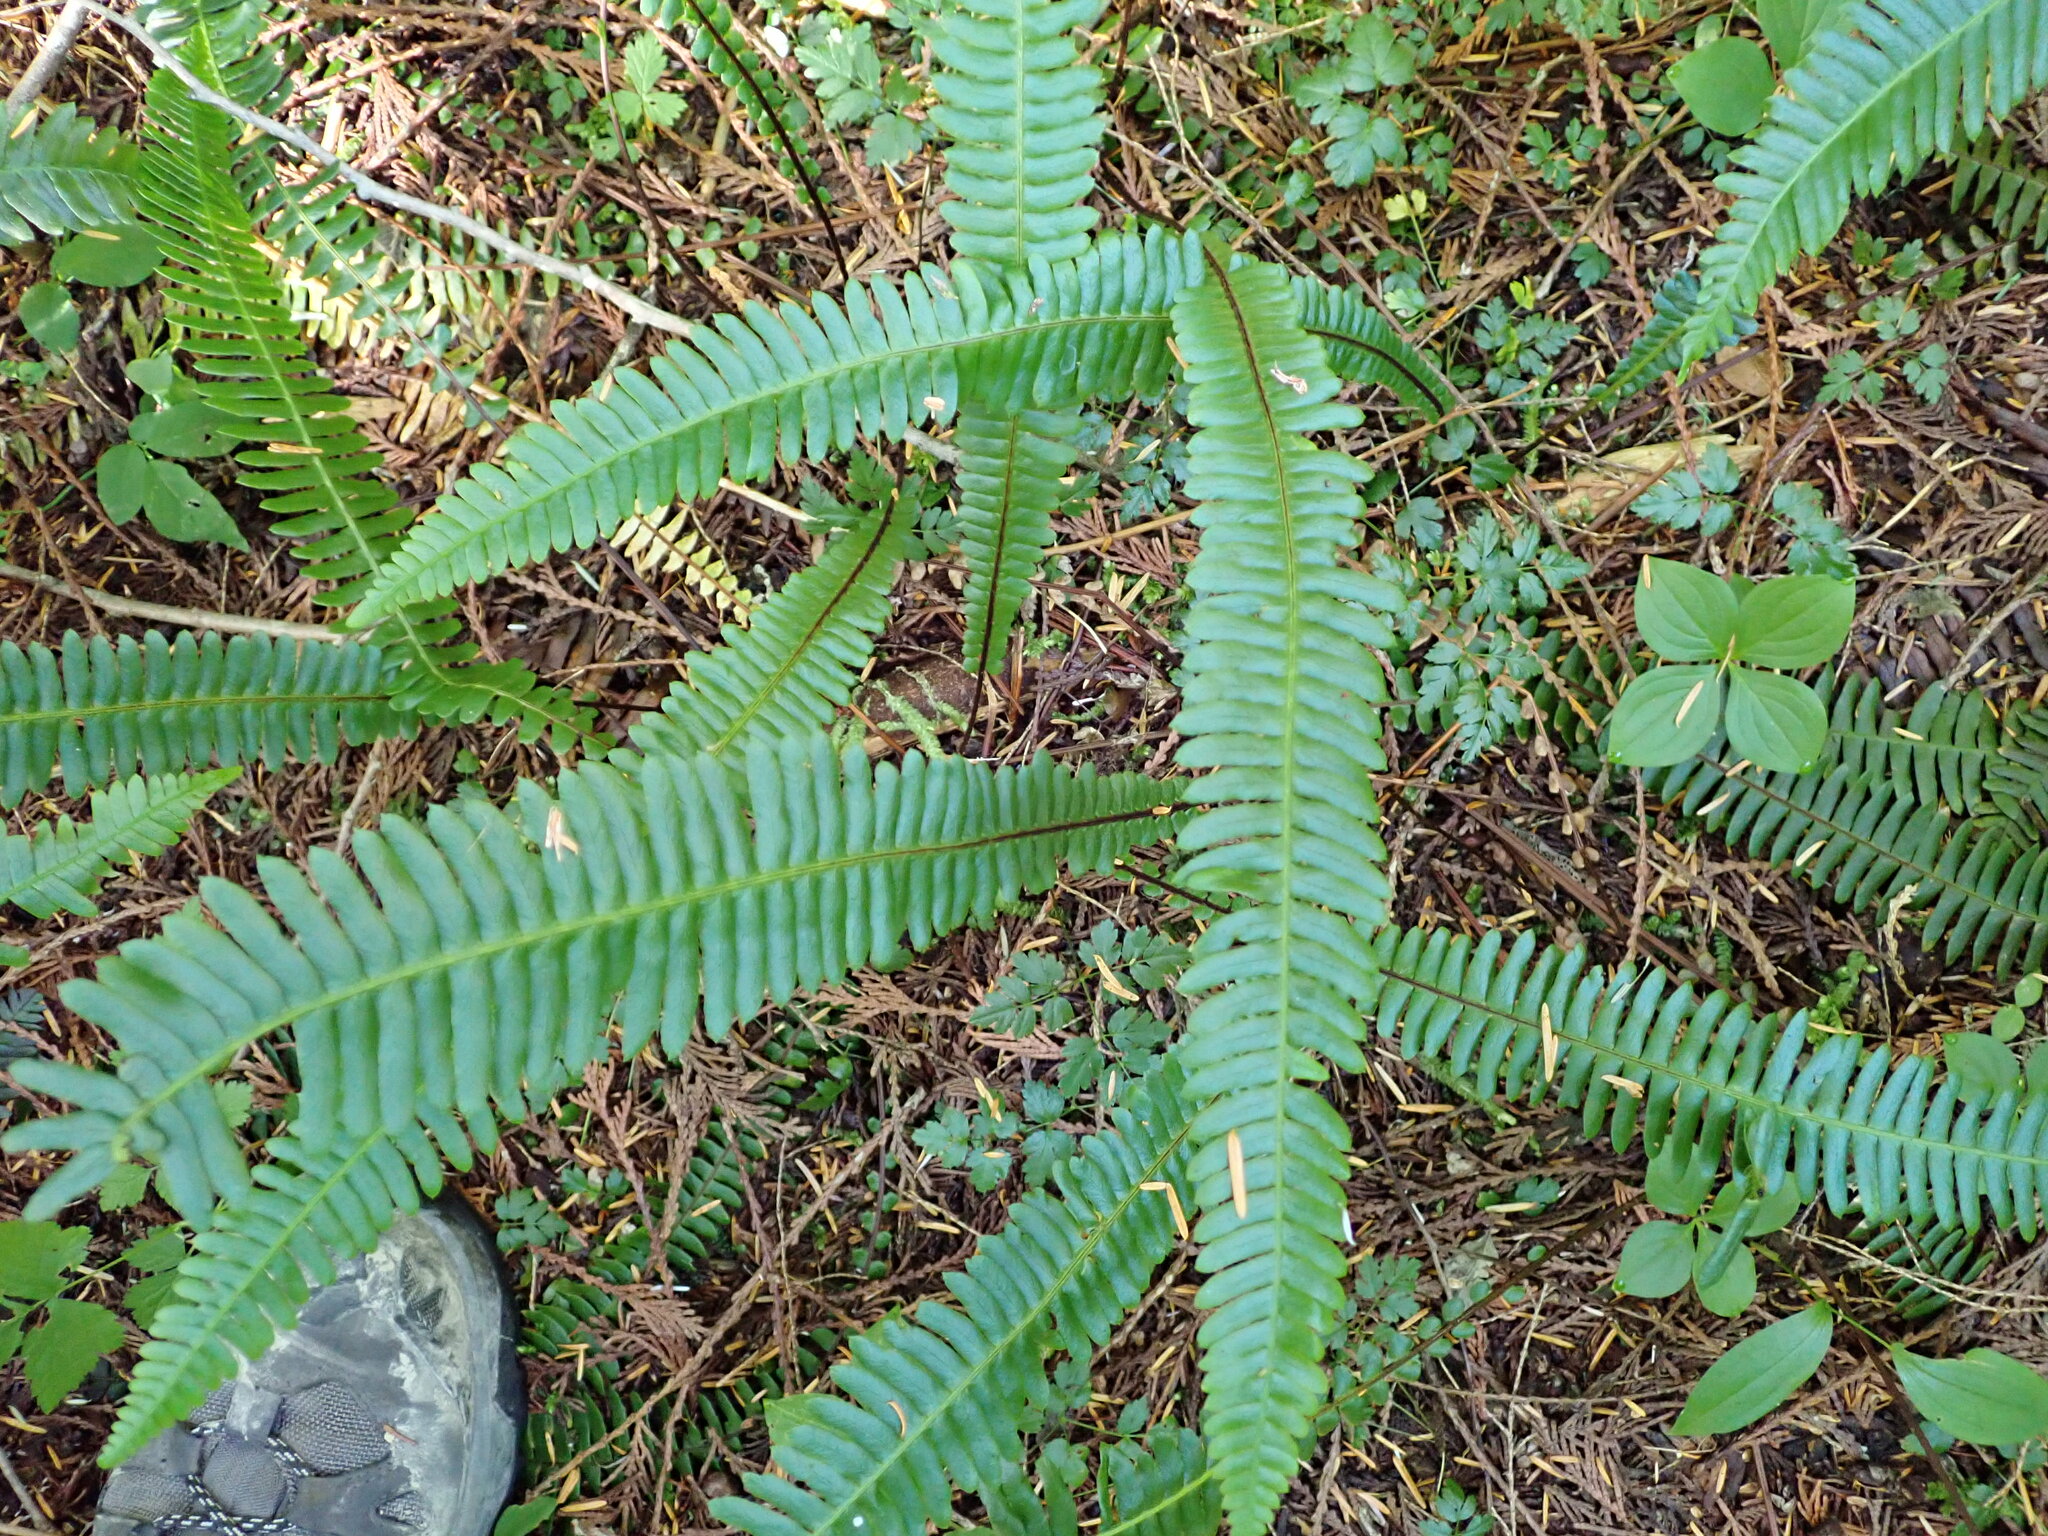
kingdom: Plantae
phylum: Tracheophyta
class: Polypodiopsida
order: Polypodiales
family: Blechnaceae
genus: Struthiopteris
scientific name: Struthiopteris spicant
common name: Deer fern
